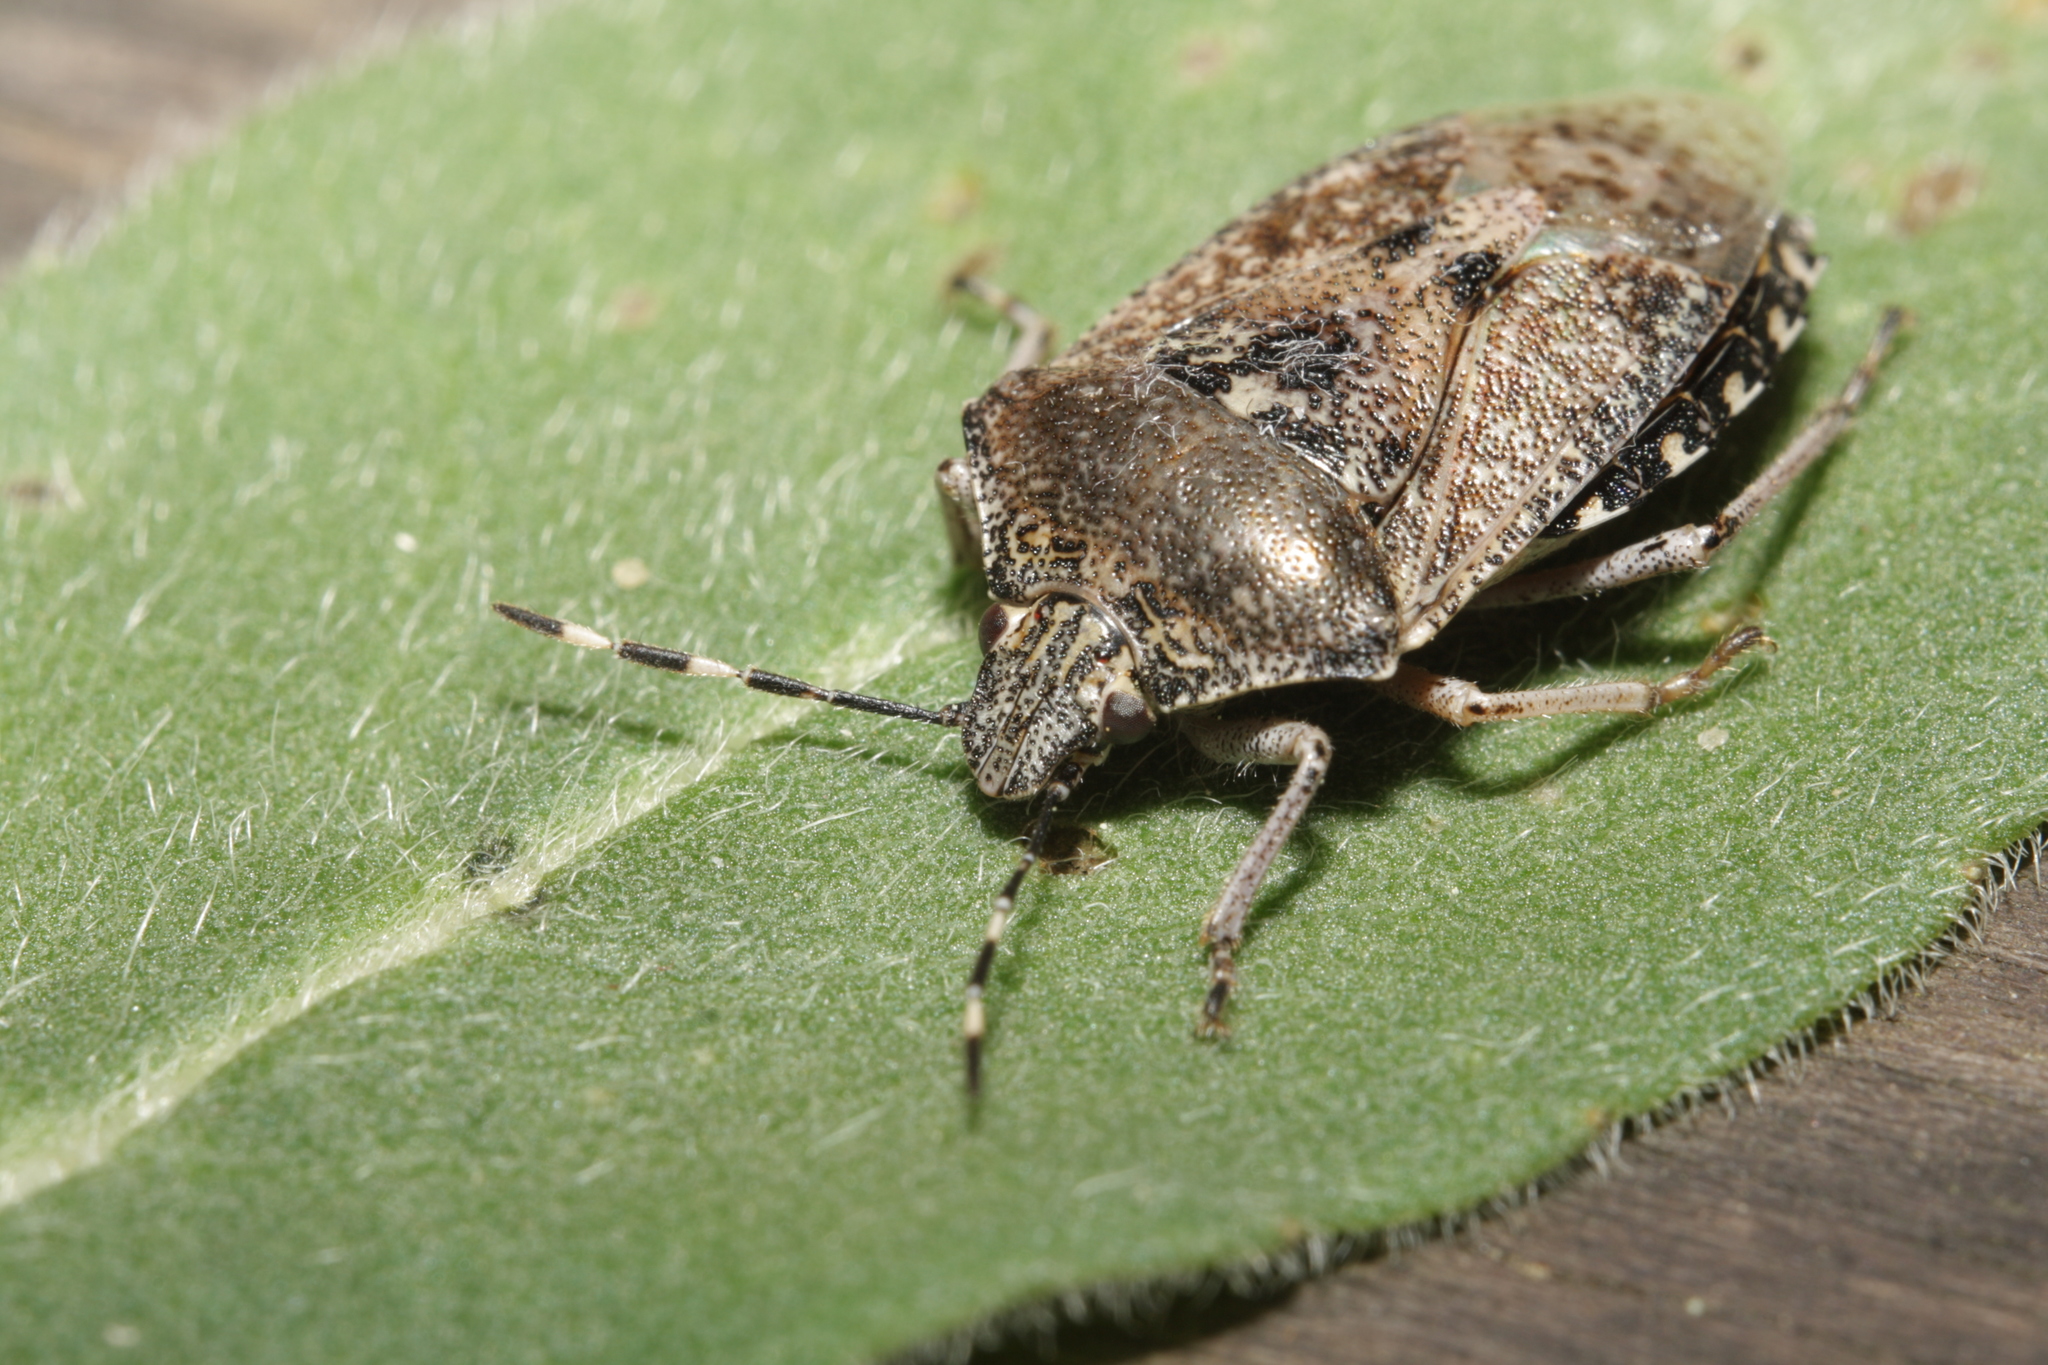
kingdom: Animalia
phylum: Arthropoda
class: Insecta
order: Hemiptera
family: Pentatomidae
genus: Rhaphigaster
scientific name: Rhaphigaster nebulosa
